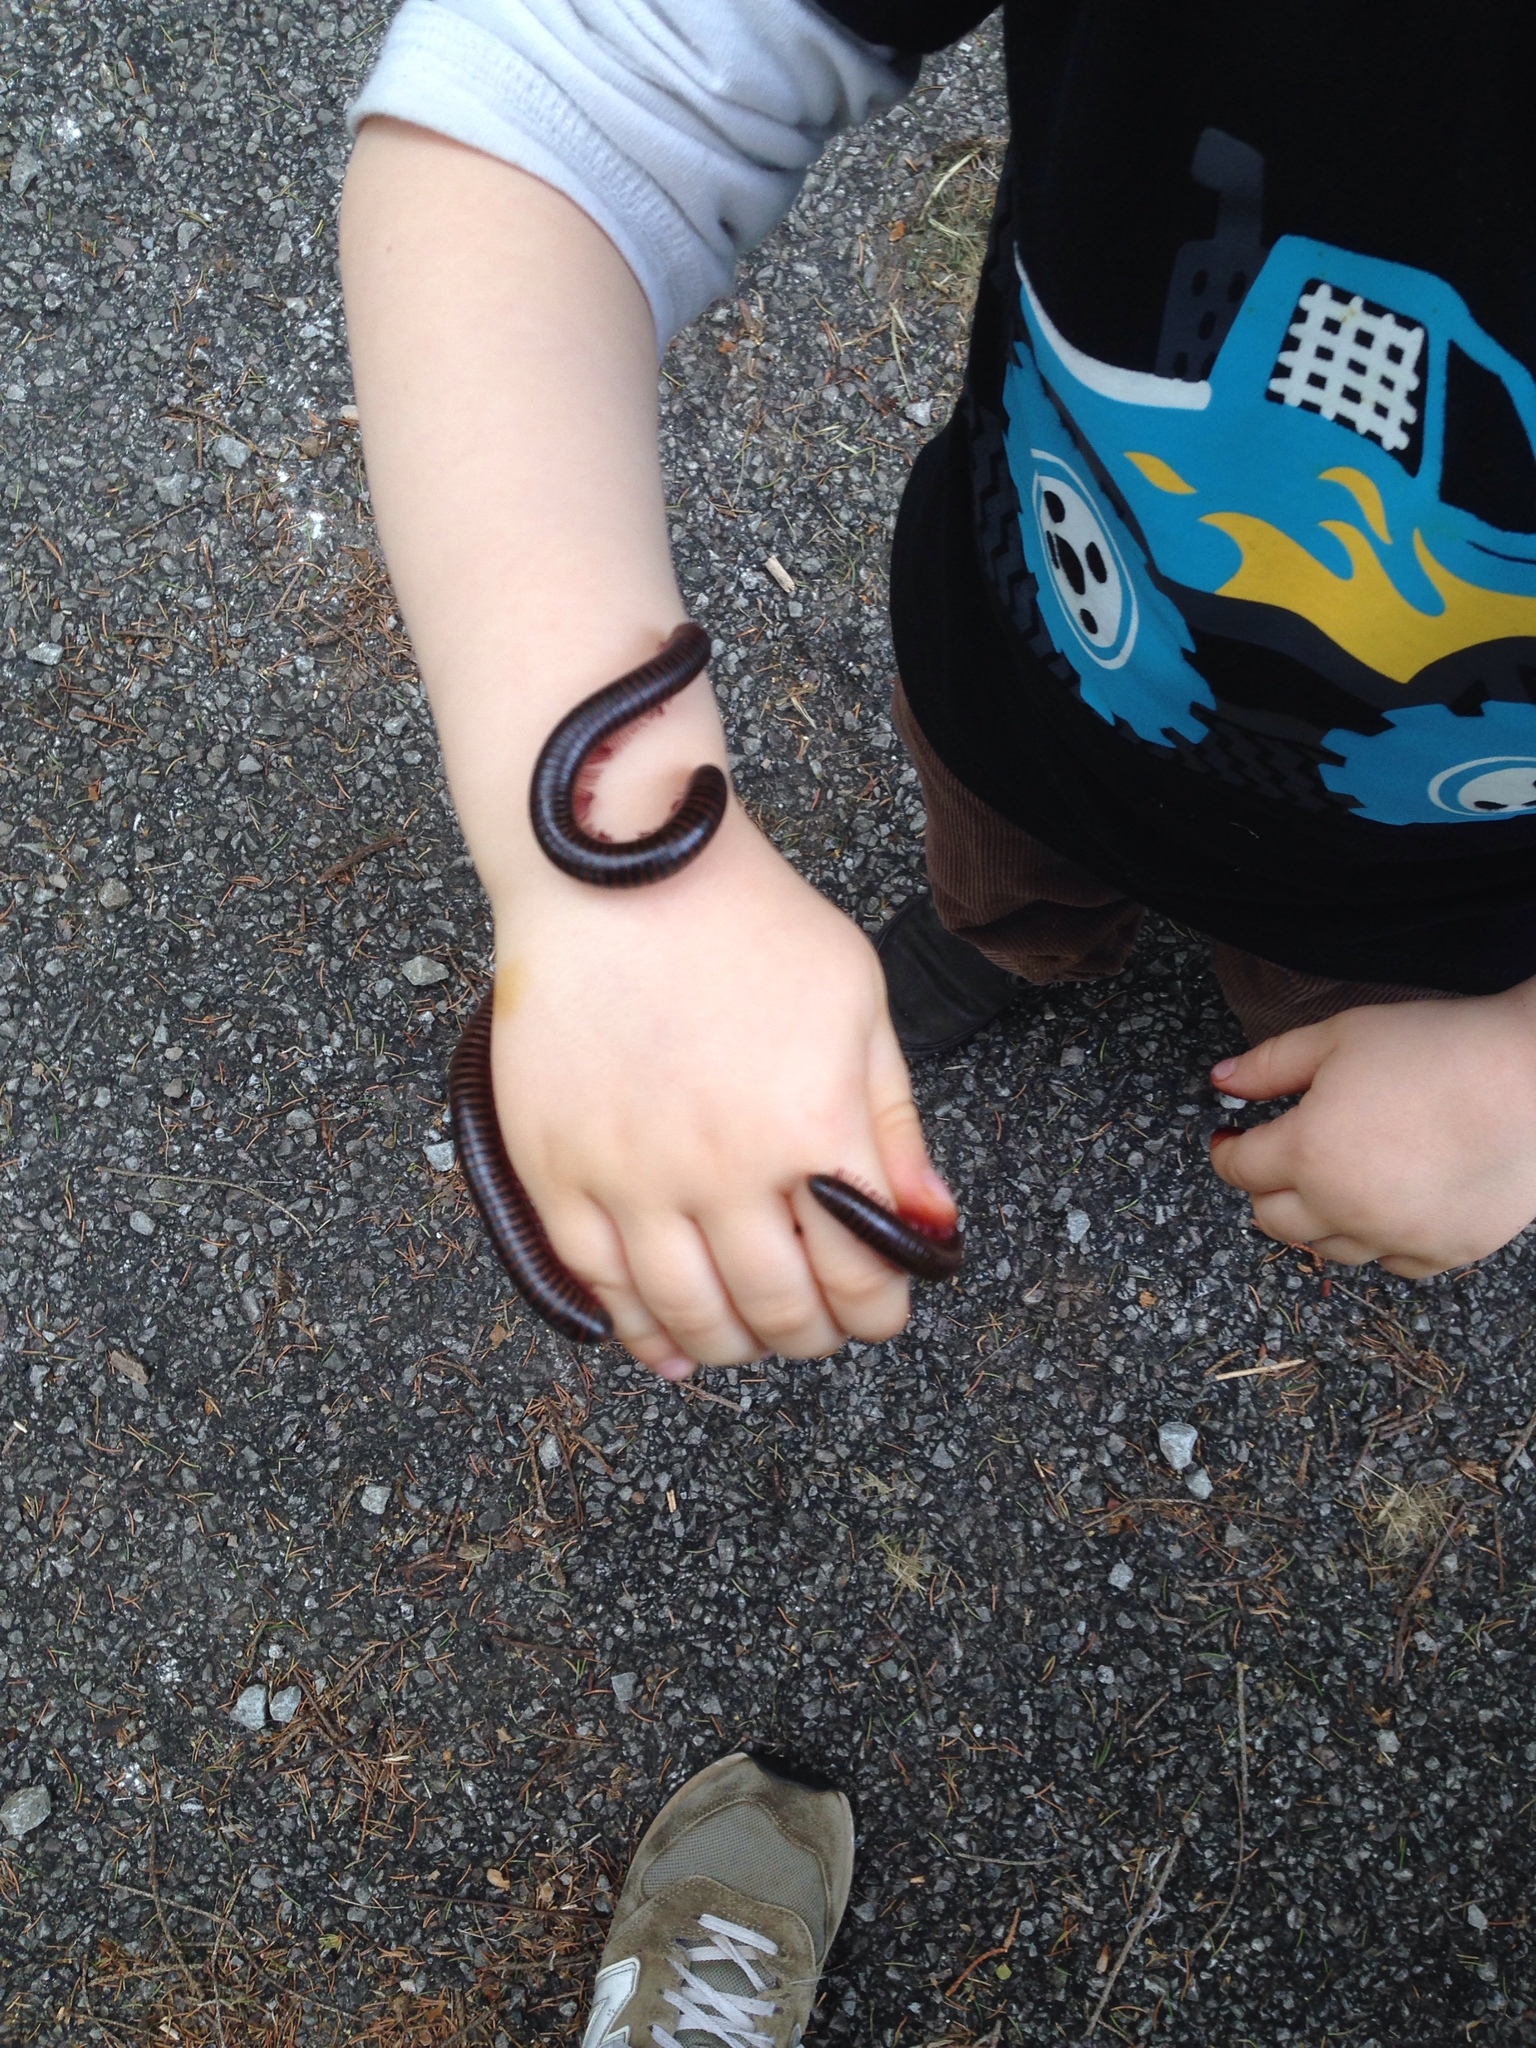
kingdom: Animalia
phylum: Arthropoda
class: Diplopoda
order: Spirobolida
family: Spirobolidae
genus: Narceus
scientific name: Narceus
